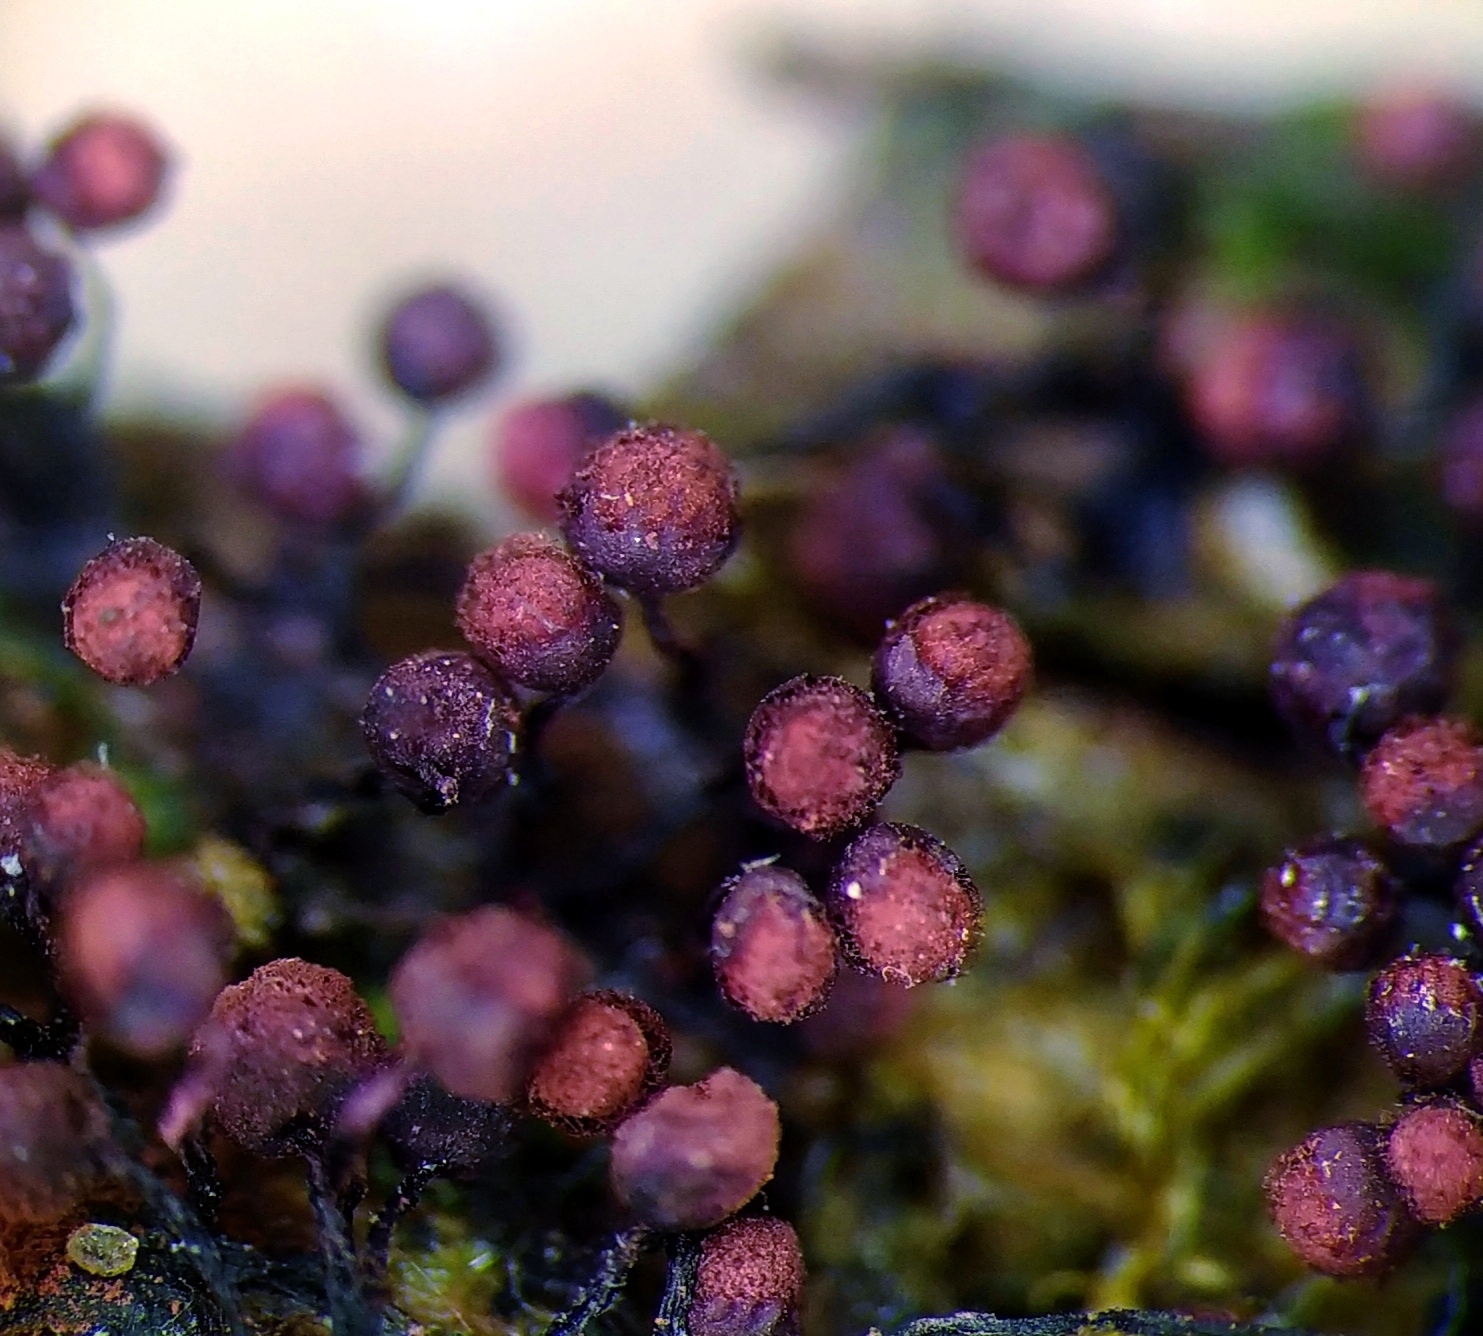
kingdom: Protozoa
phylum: Mycetozoa
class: Myxomycetes
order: Cribrariales
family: Cribrariaceae
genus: Cribraria
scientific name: Cribraria purpurea
